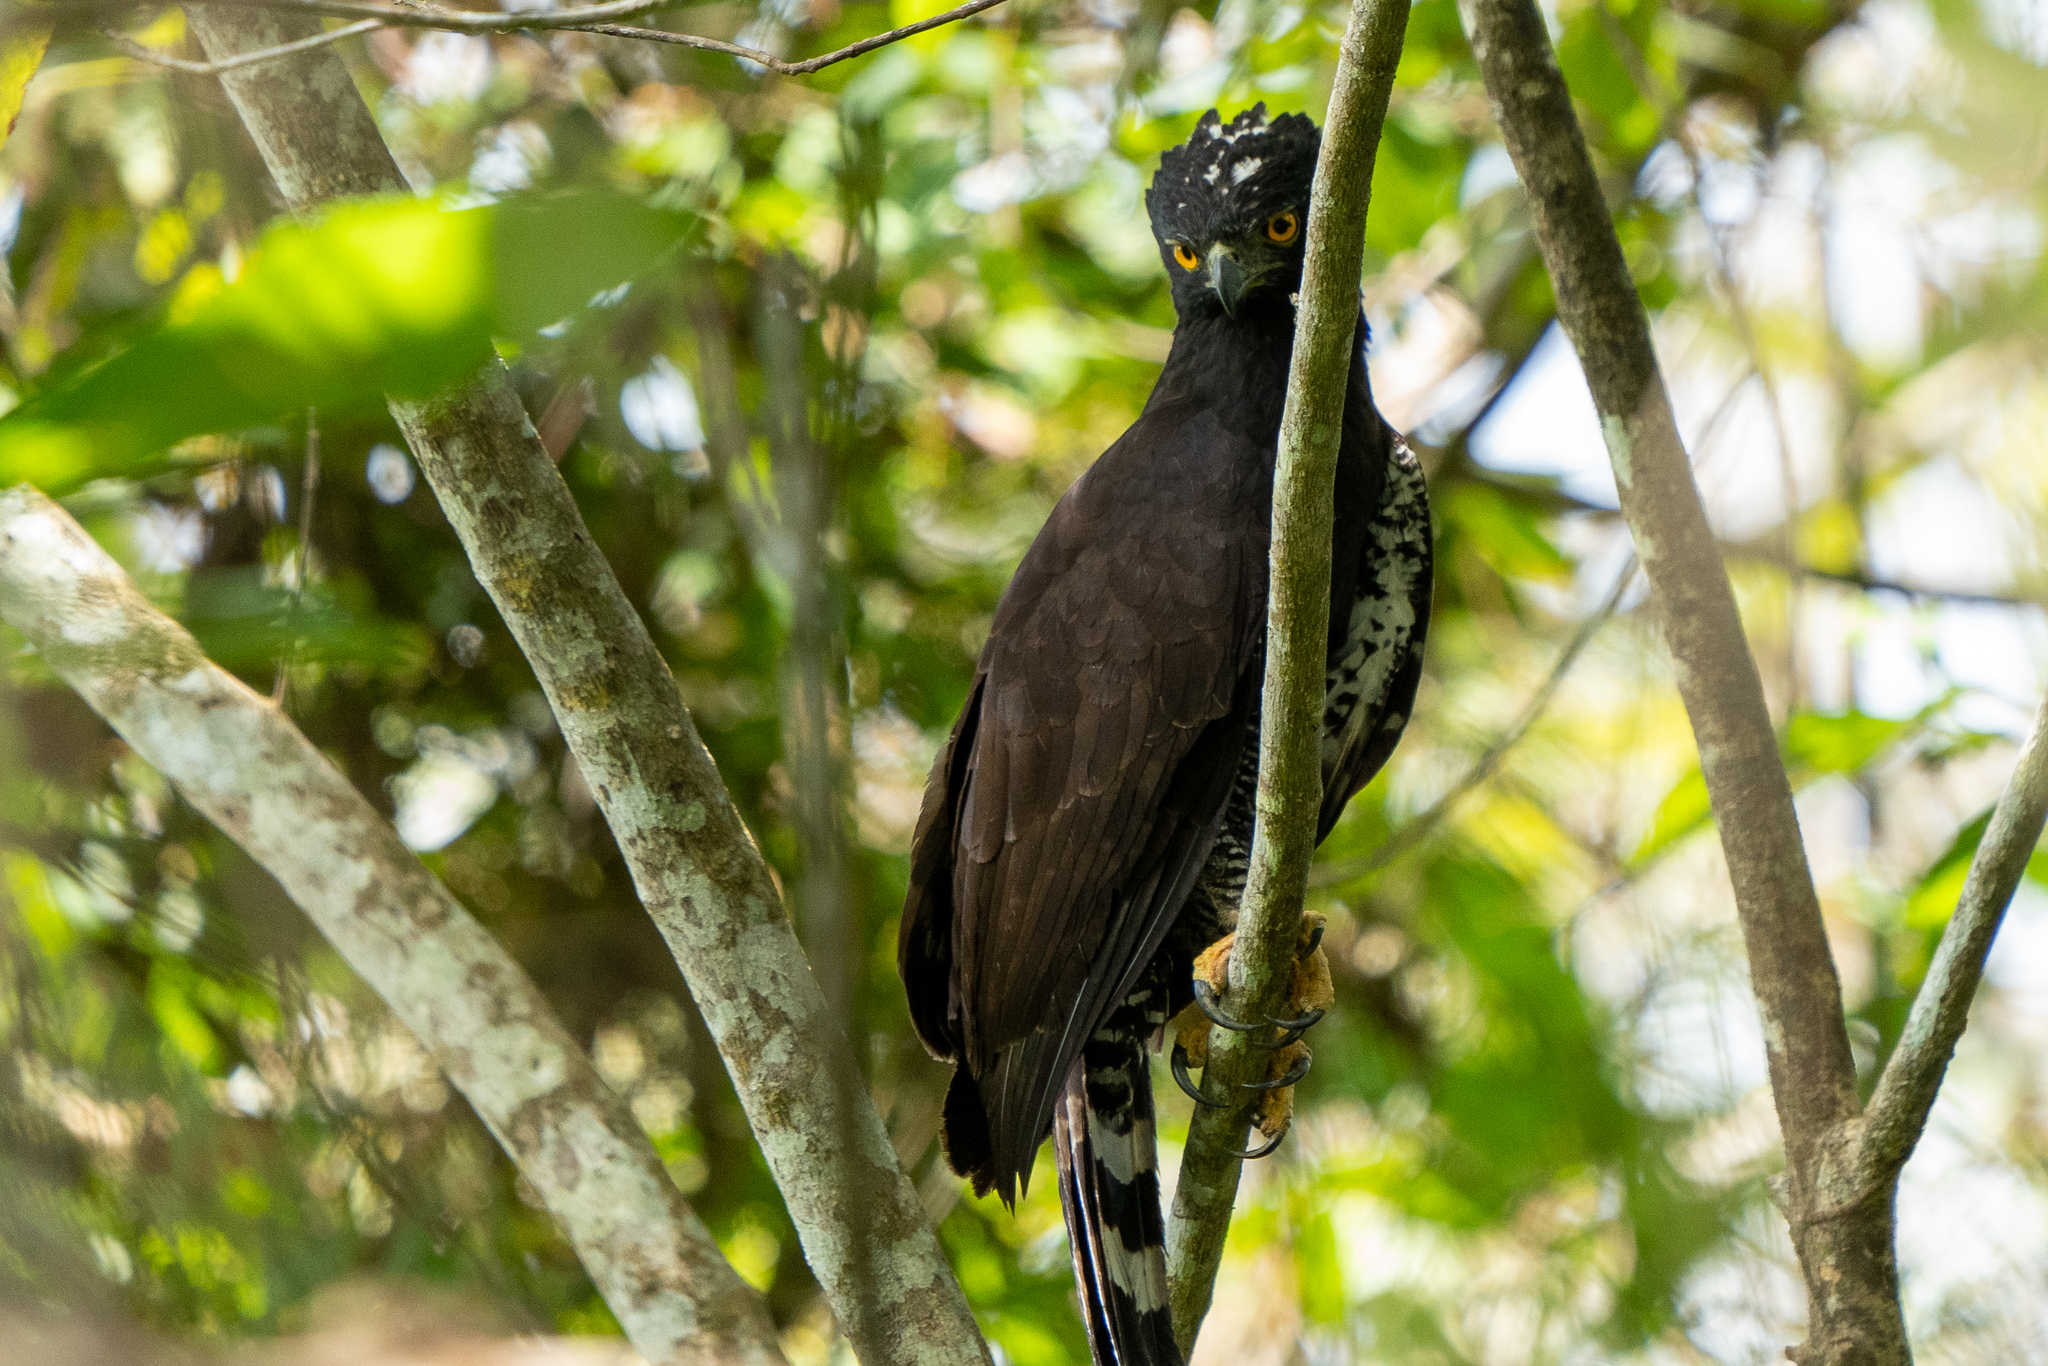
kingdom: Animalia
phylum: Chordata
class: Aves
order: Accipitriformes
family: Accipitridae
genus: Spizaetus
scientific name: Spizaetus tyrannus
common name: Black hawk-eagle
